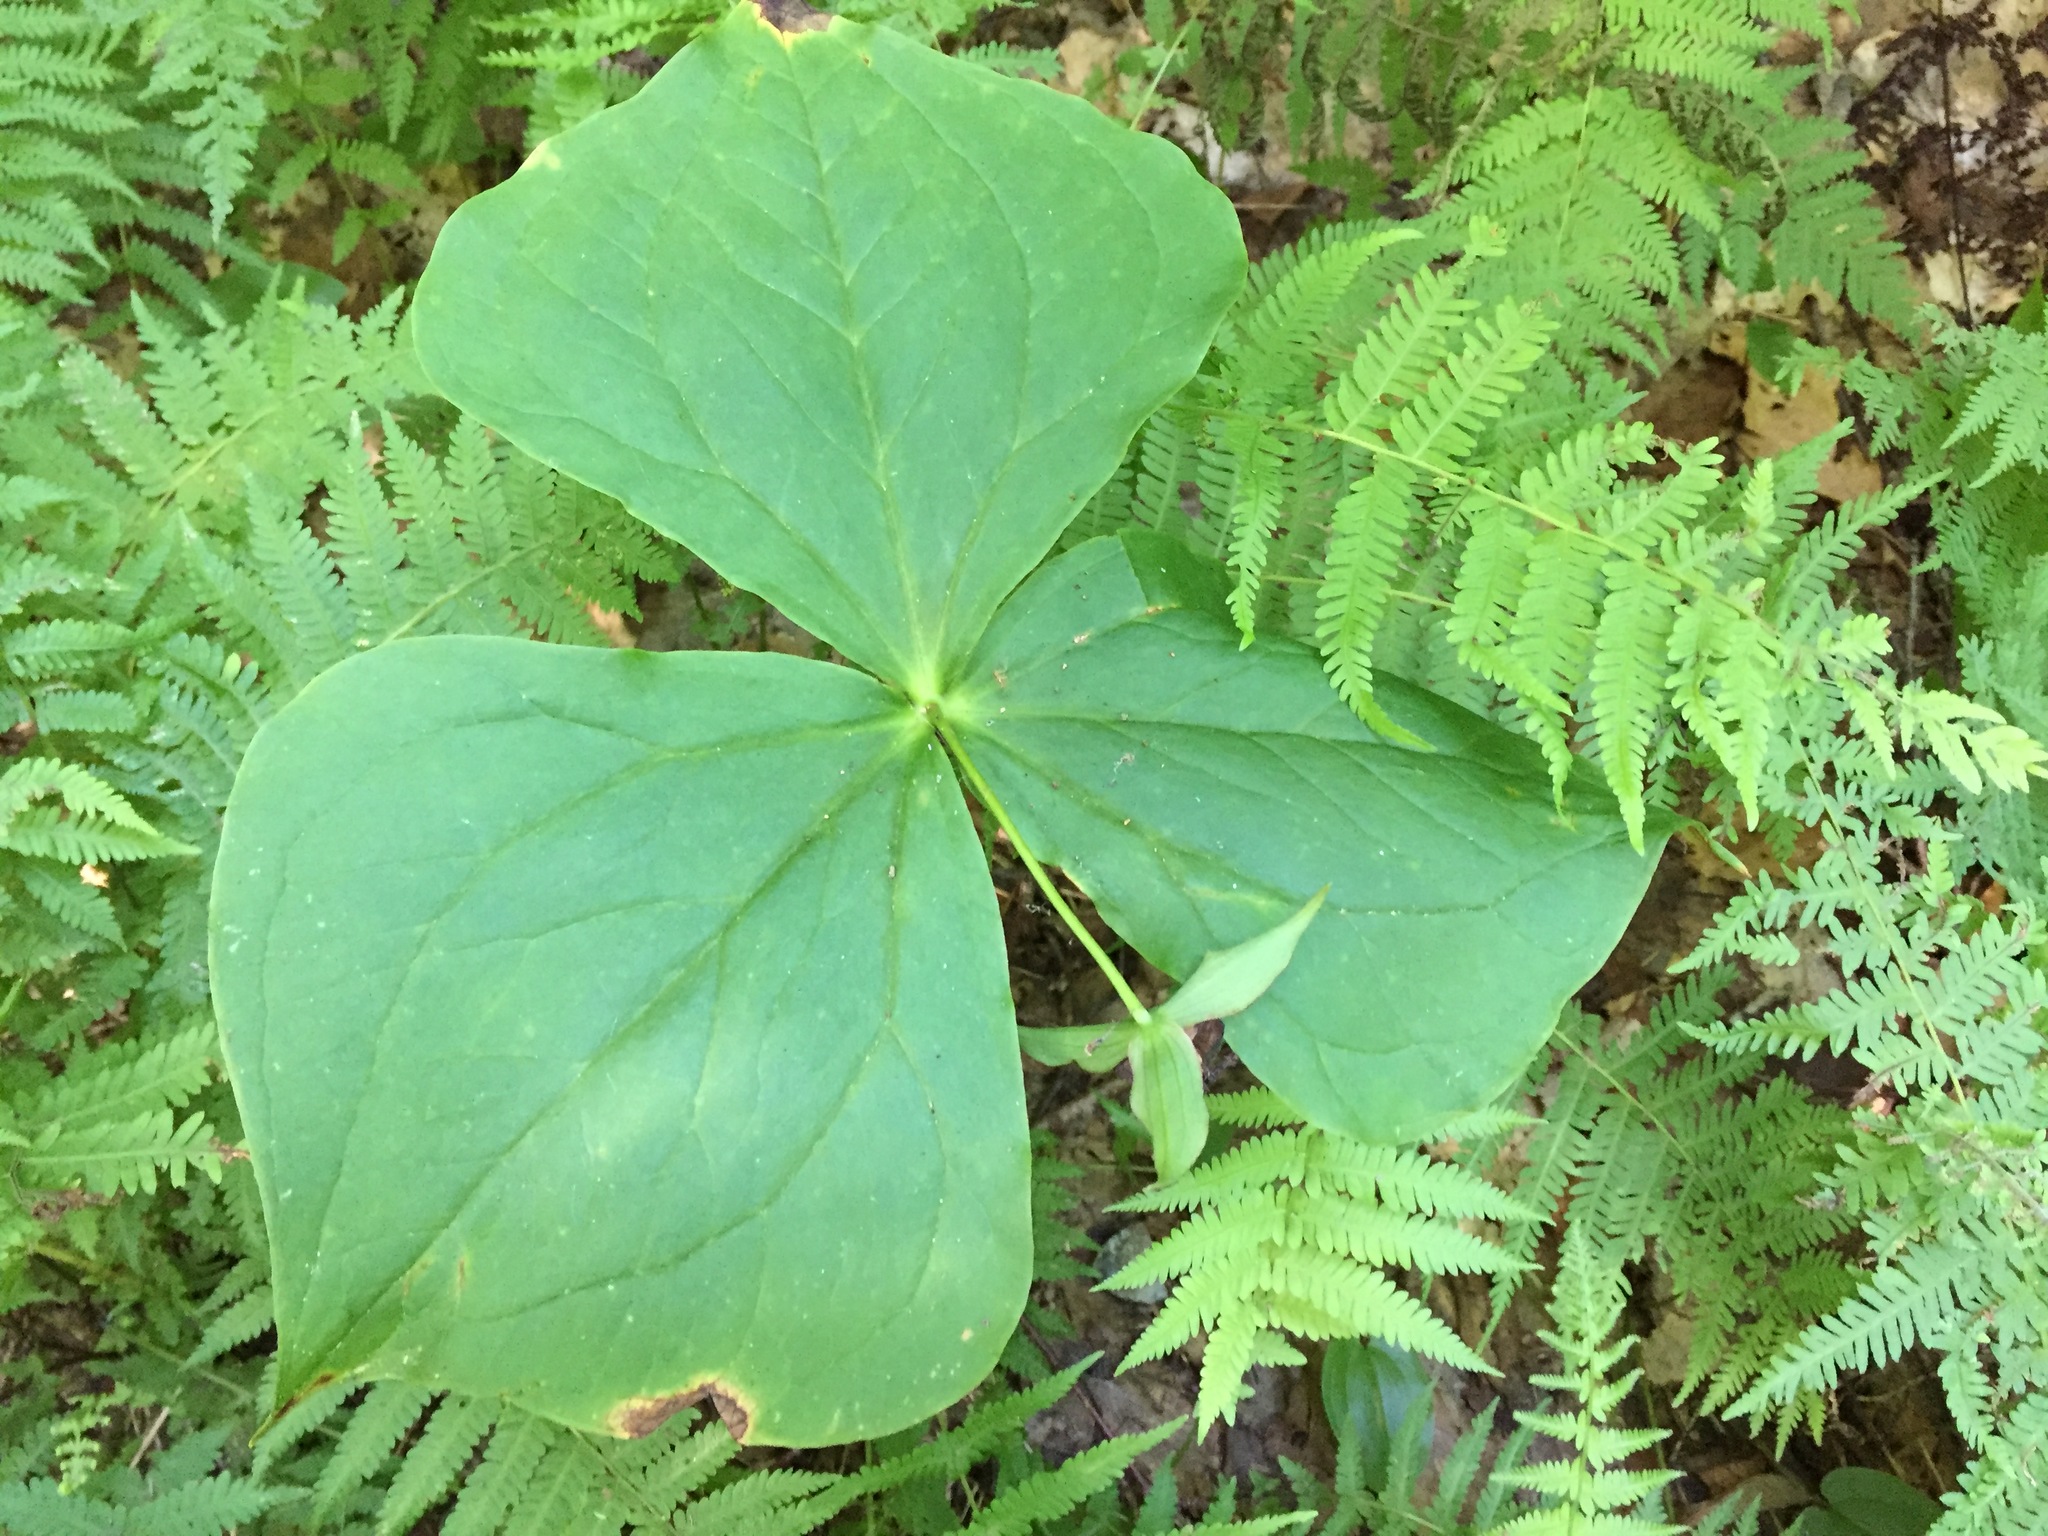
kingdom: Plantae
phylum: Tracheophyta
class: Liliopsida
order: Liliales
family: Melanthiaceae
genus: Trillium
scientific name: Trillium erectum
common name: Purple trillium
